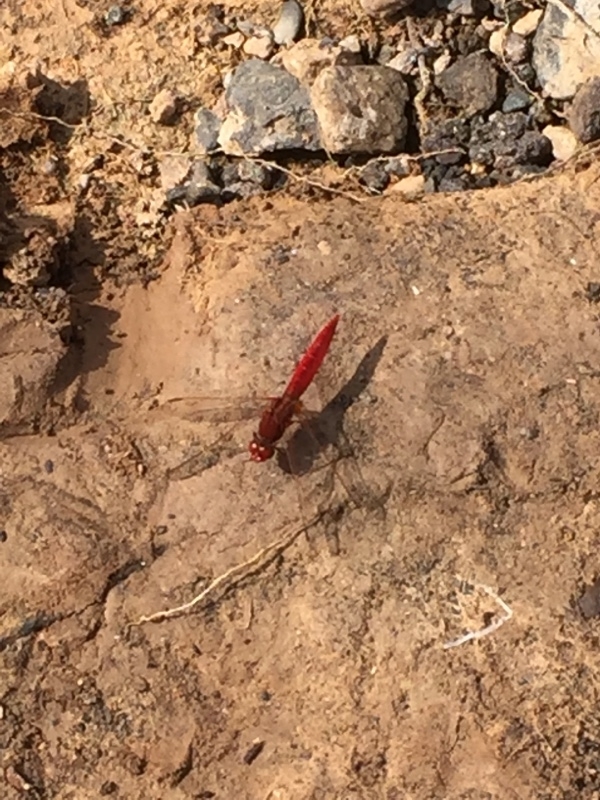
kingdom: Animalia
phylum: Arthropoda
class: Insecta
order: Odonata
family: Libellulidae
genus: Crocothemis
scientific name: Crocothemis erythraea
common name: Scarlet dragonfly
